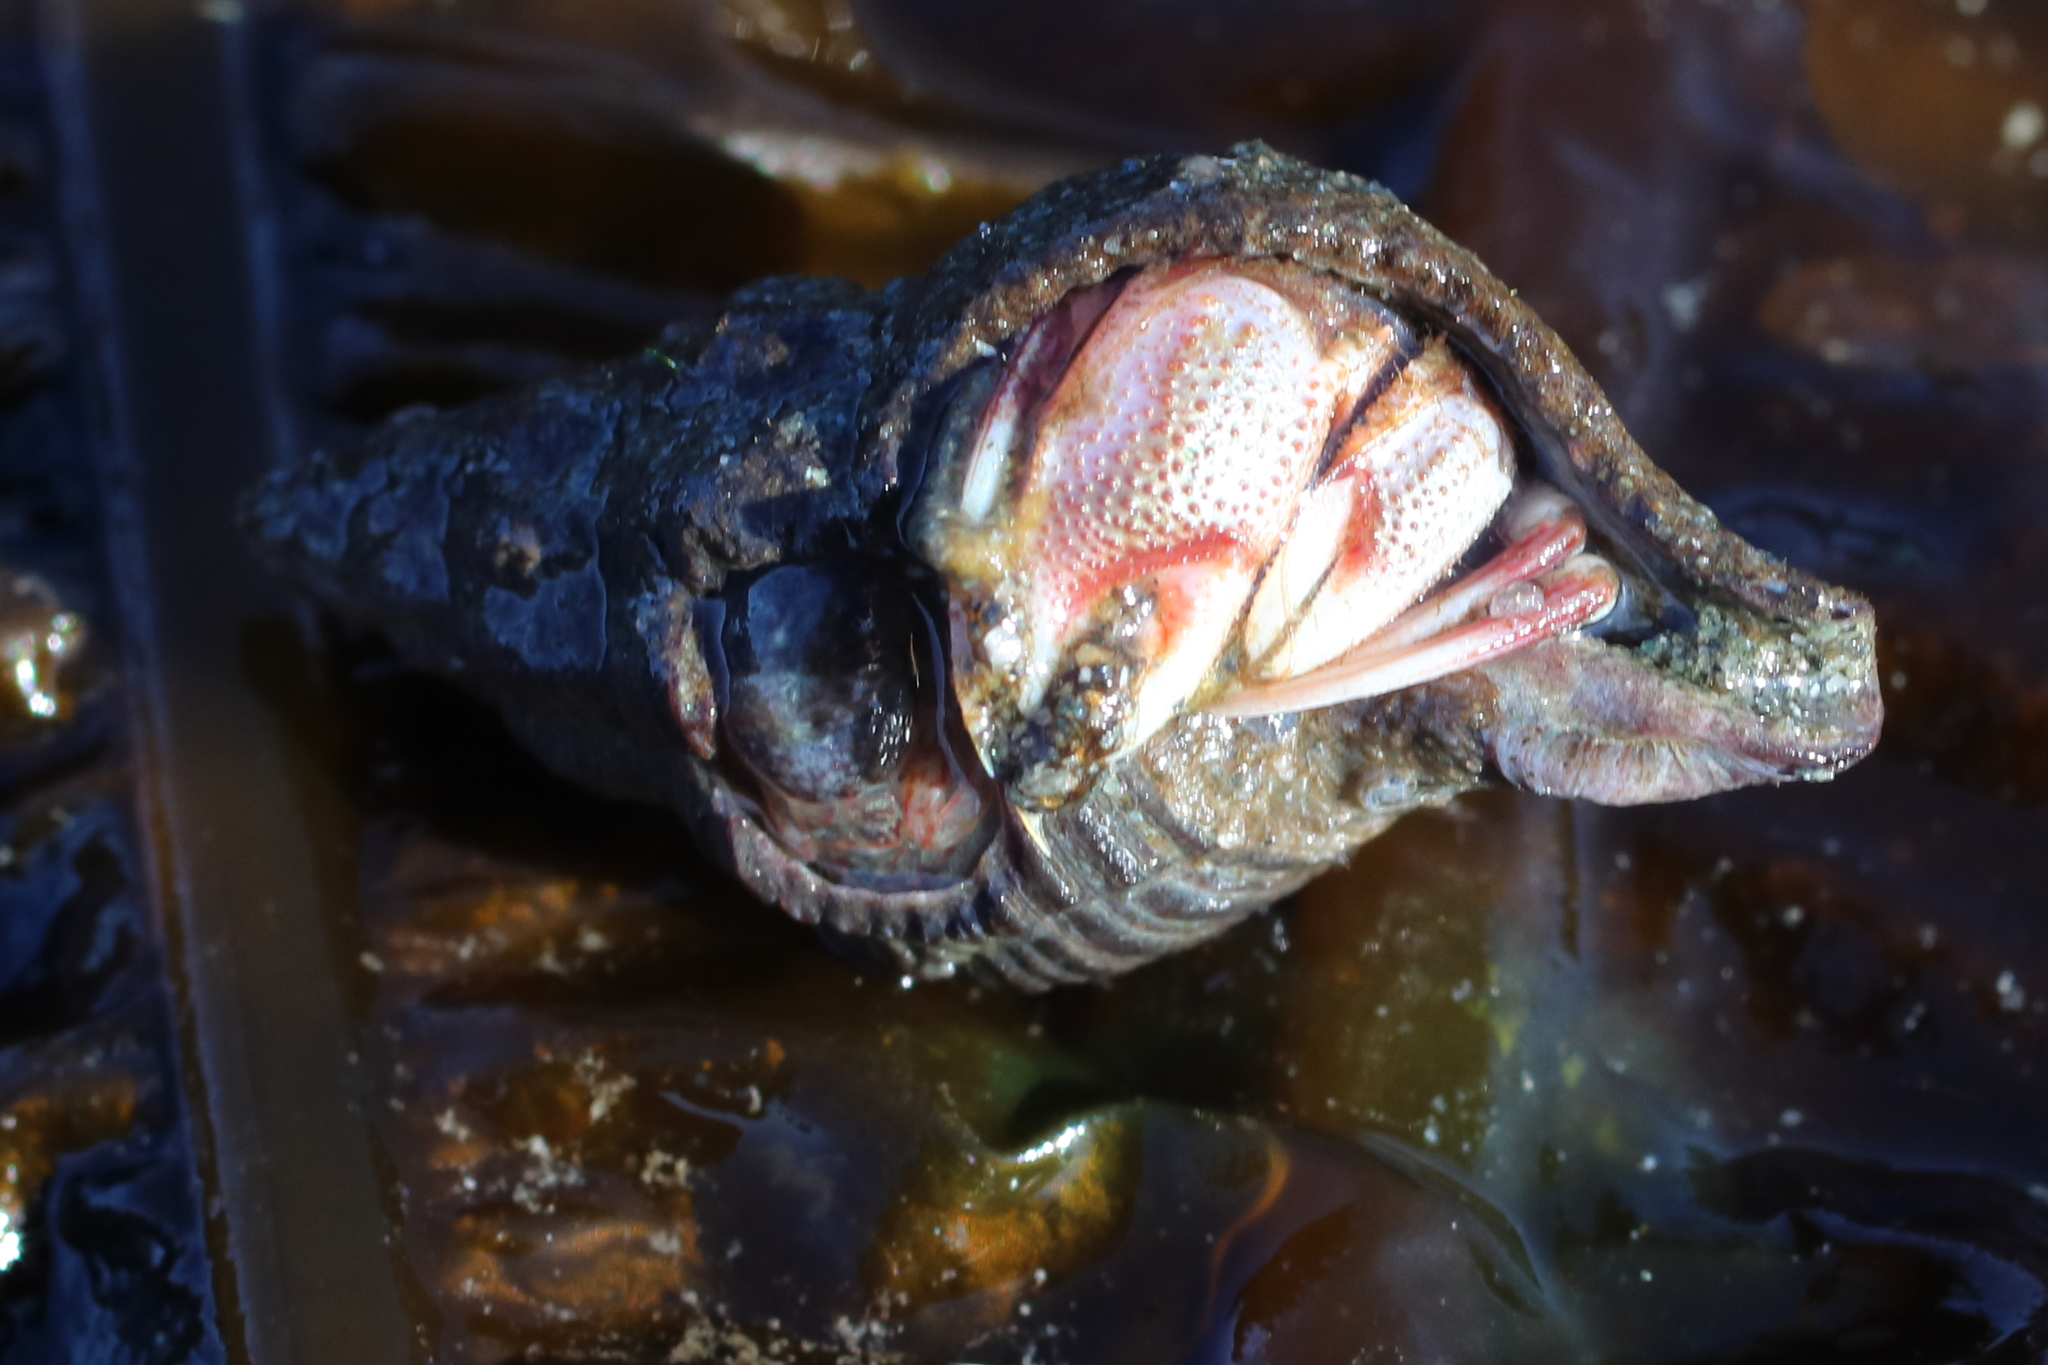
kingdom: Animalia
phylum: Arthropoda
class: Malacostraca
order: Decapoda
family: Paguridae
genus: Pagurus
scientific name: Pagurus ochotensis
